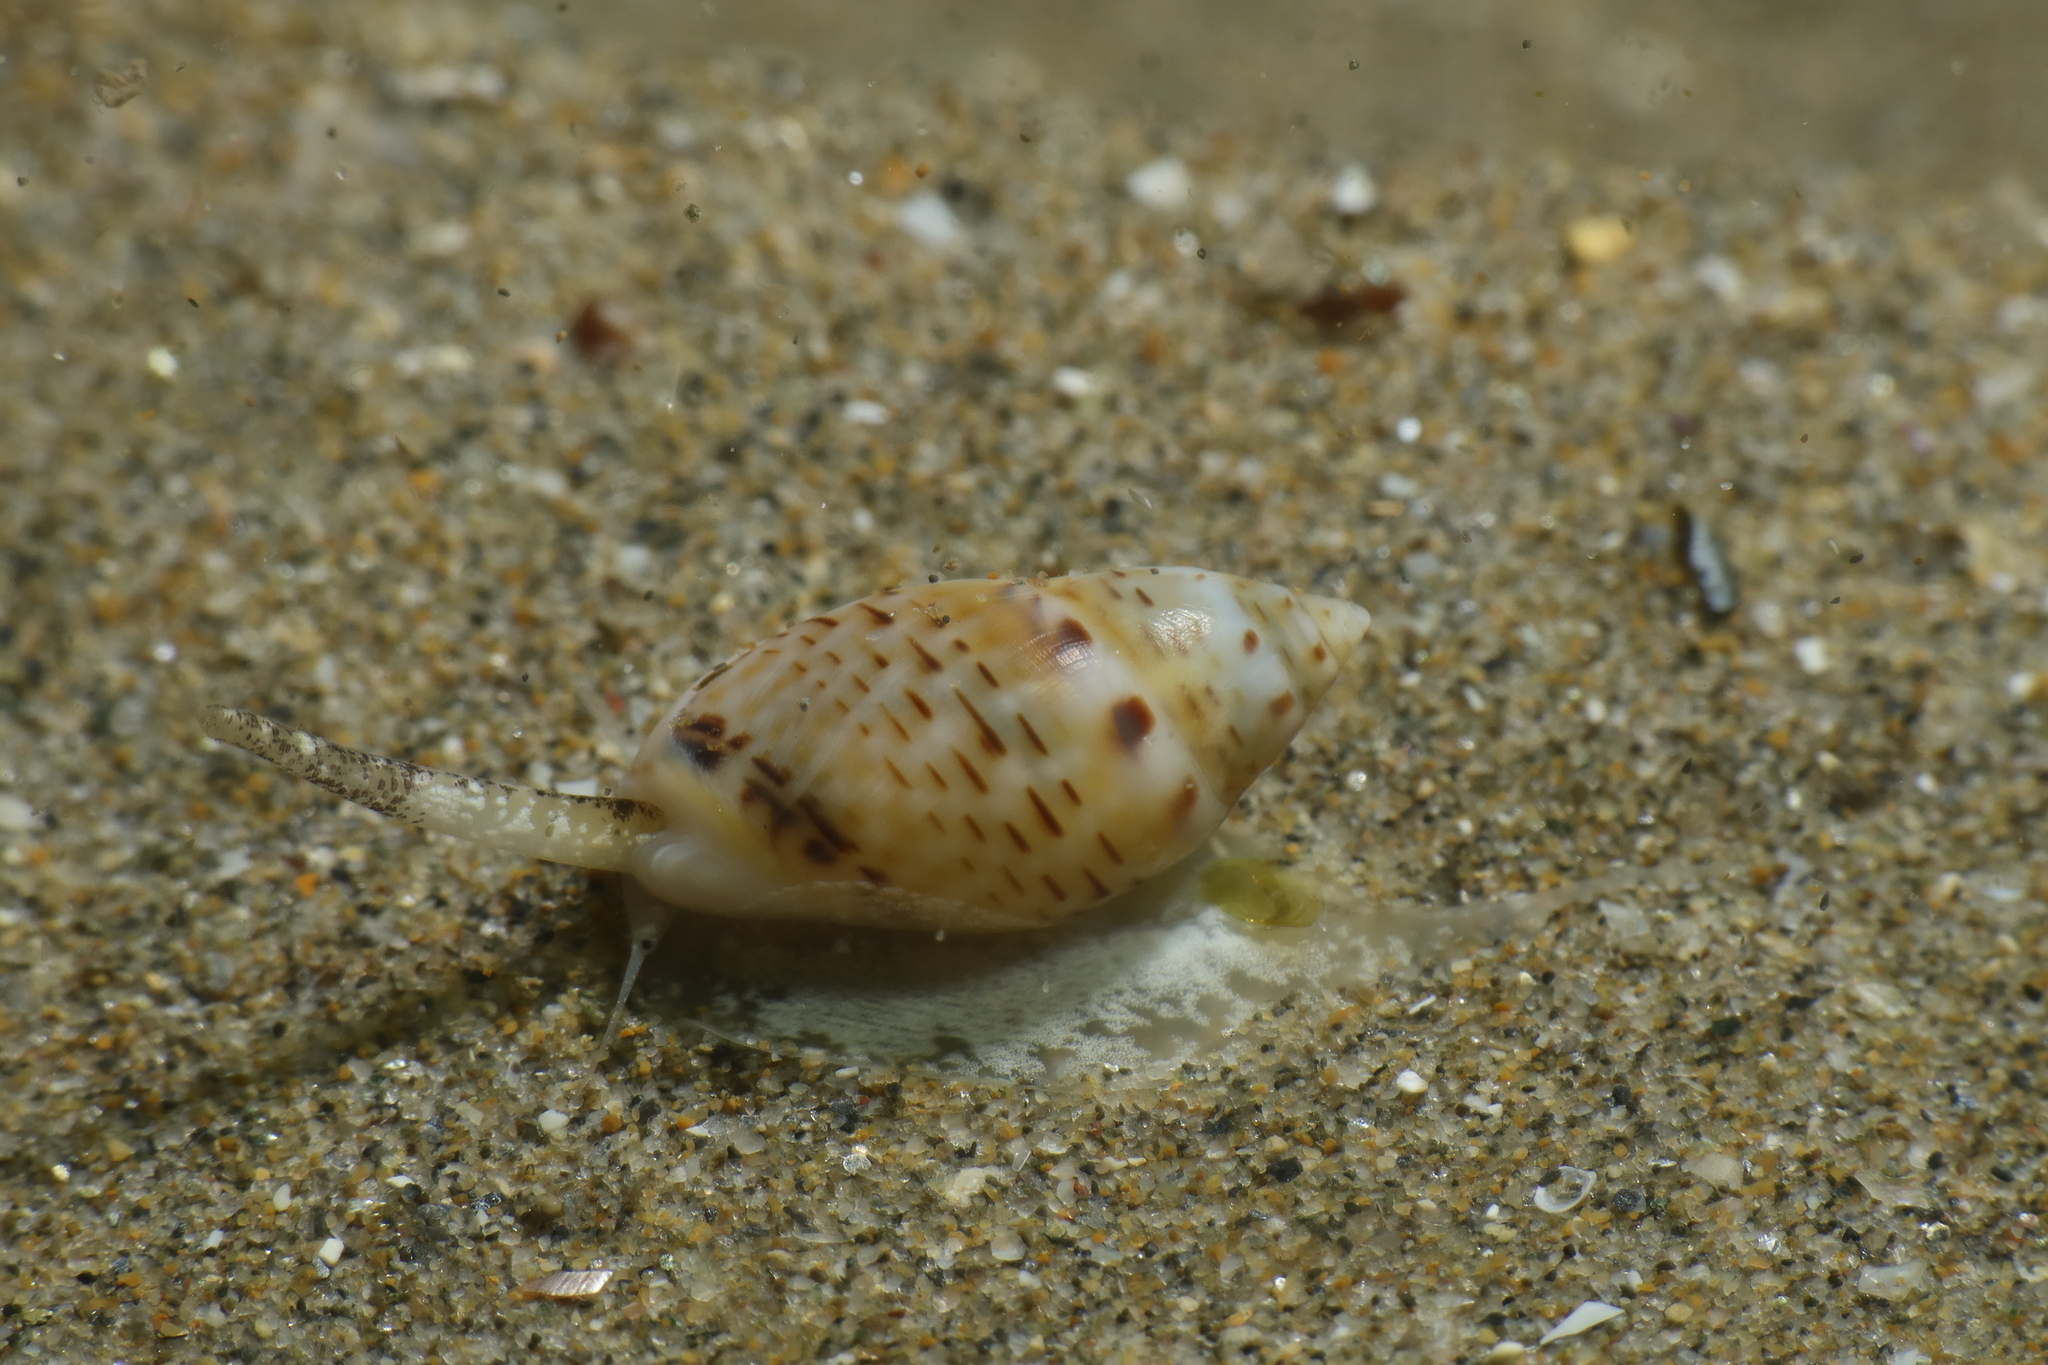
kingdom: Animalia
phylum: Mollusca
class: Gastropoda
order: Neogastropoda
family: Nassariidae
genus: Tritia
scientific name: Tritia grana
